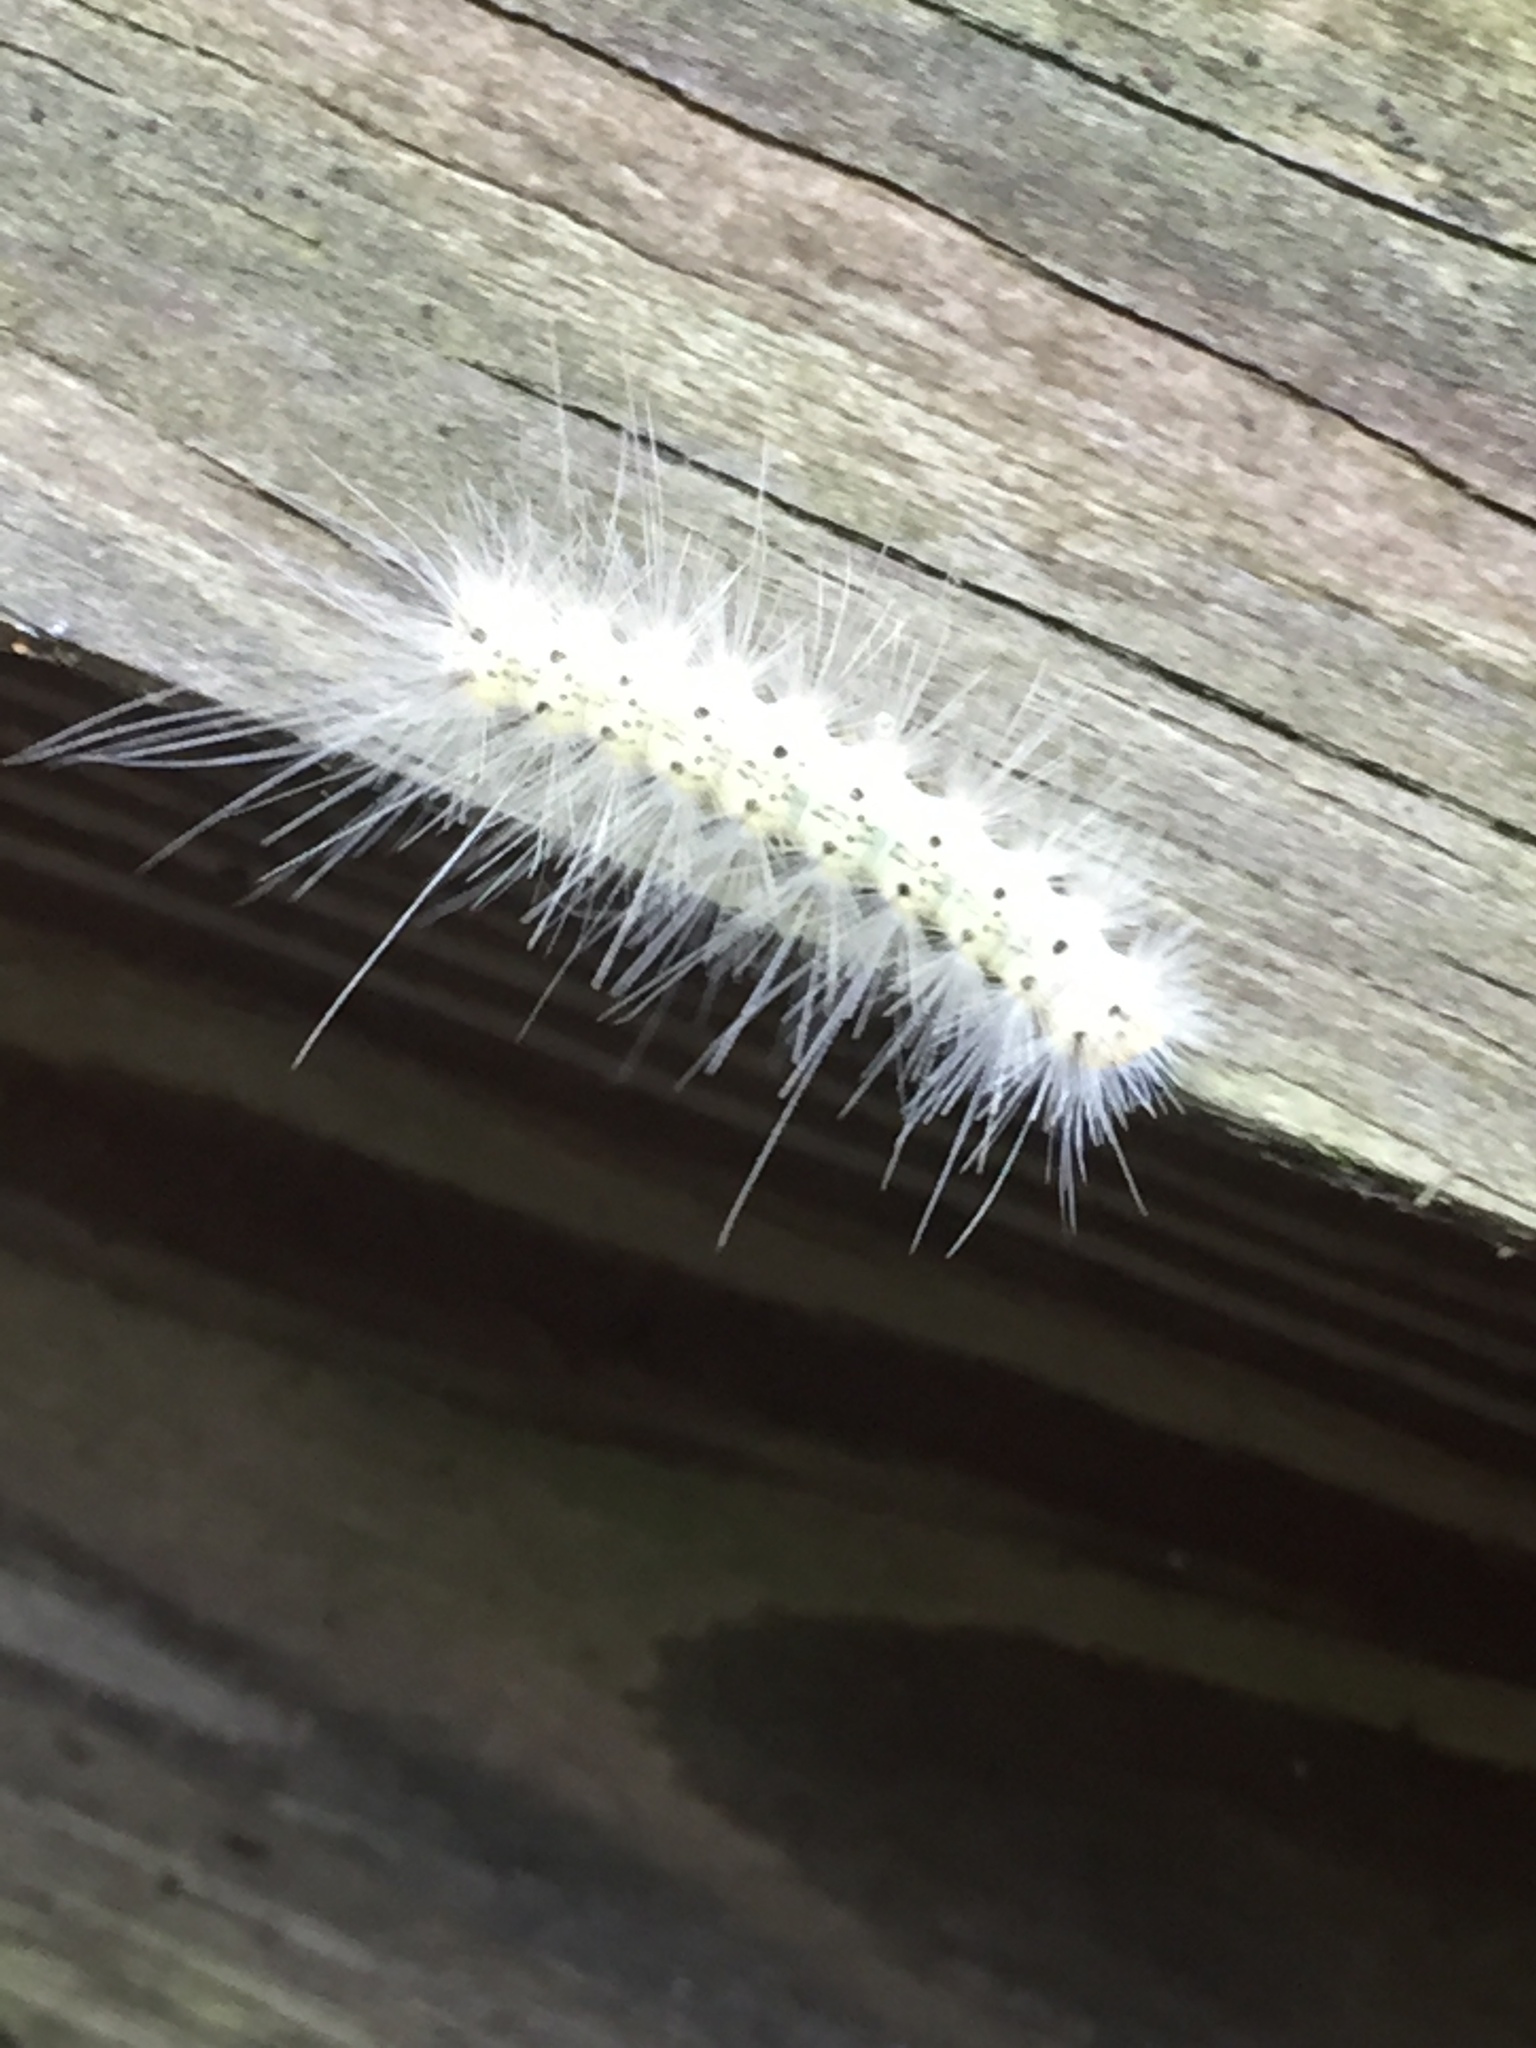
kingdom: Animalia
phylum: Arthropoda
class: Insecta
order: Lepidoptera
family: Erebidae
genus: Hyphantria
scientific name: Hyphantria cunea
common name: American white moth
